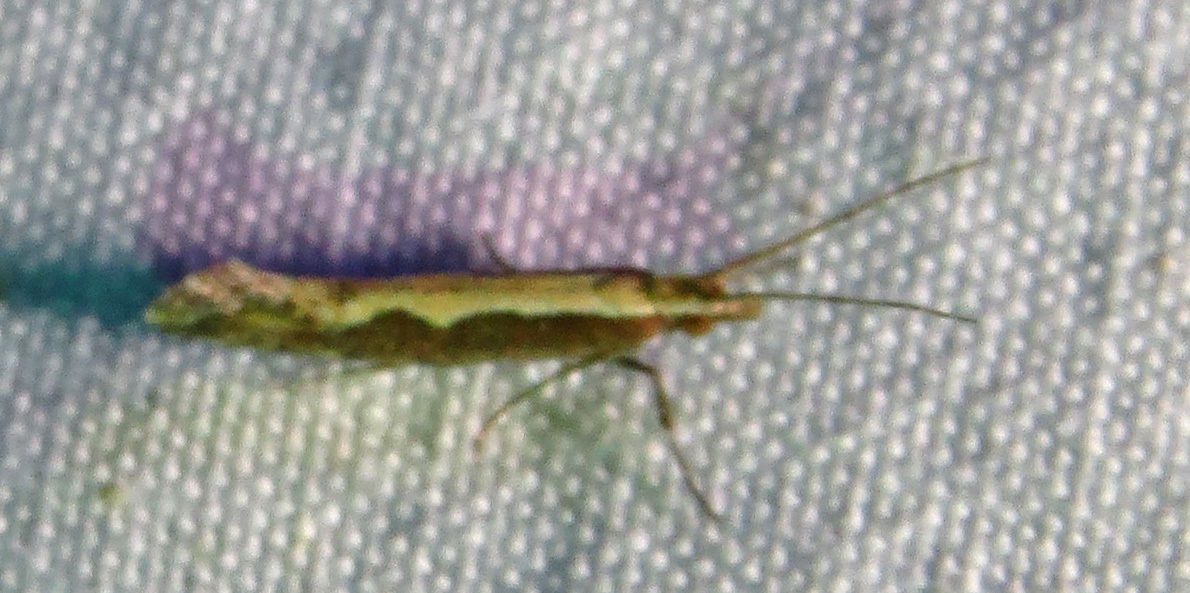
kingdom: Animalia
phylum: Arthropoda
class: Insecta
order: Lepidoptera
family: Plutellidae
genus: Plutella
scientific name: Plutella xylostella
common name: Diamond-back moth
